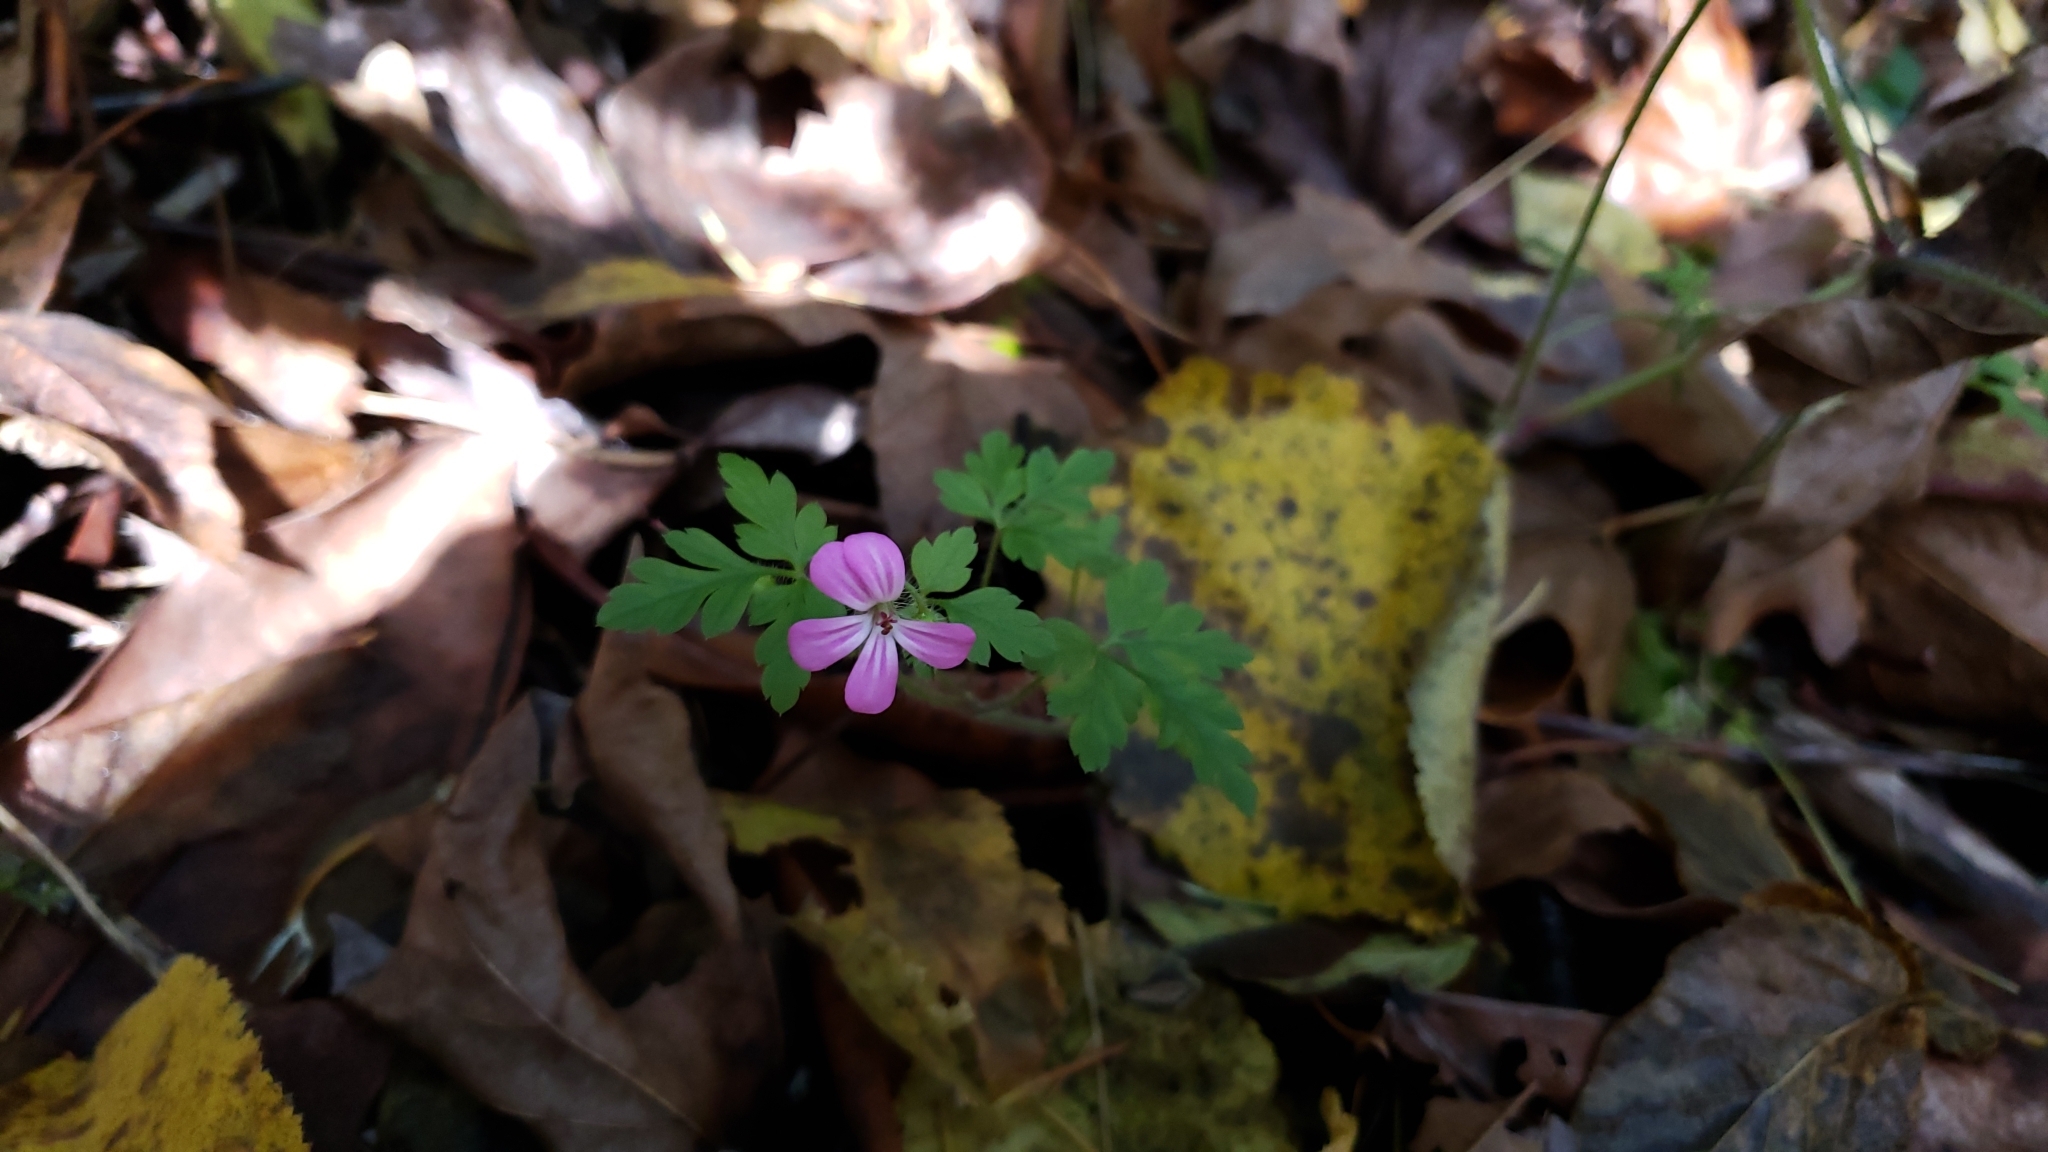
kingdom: Plantae
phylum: Tracheophyta
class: Magnoliopsida
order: Geraniales
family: Geraniaceae
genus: Geranium
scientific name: Geranium robertianum
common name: Herb-robert
